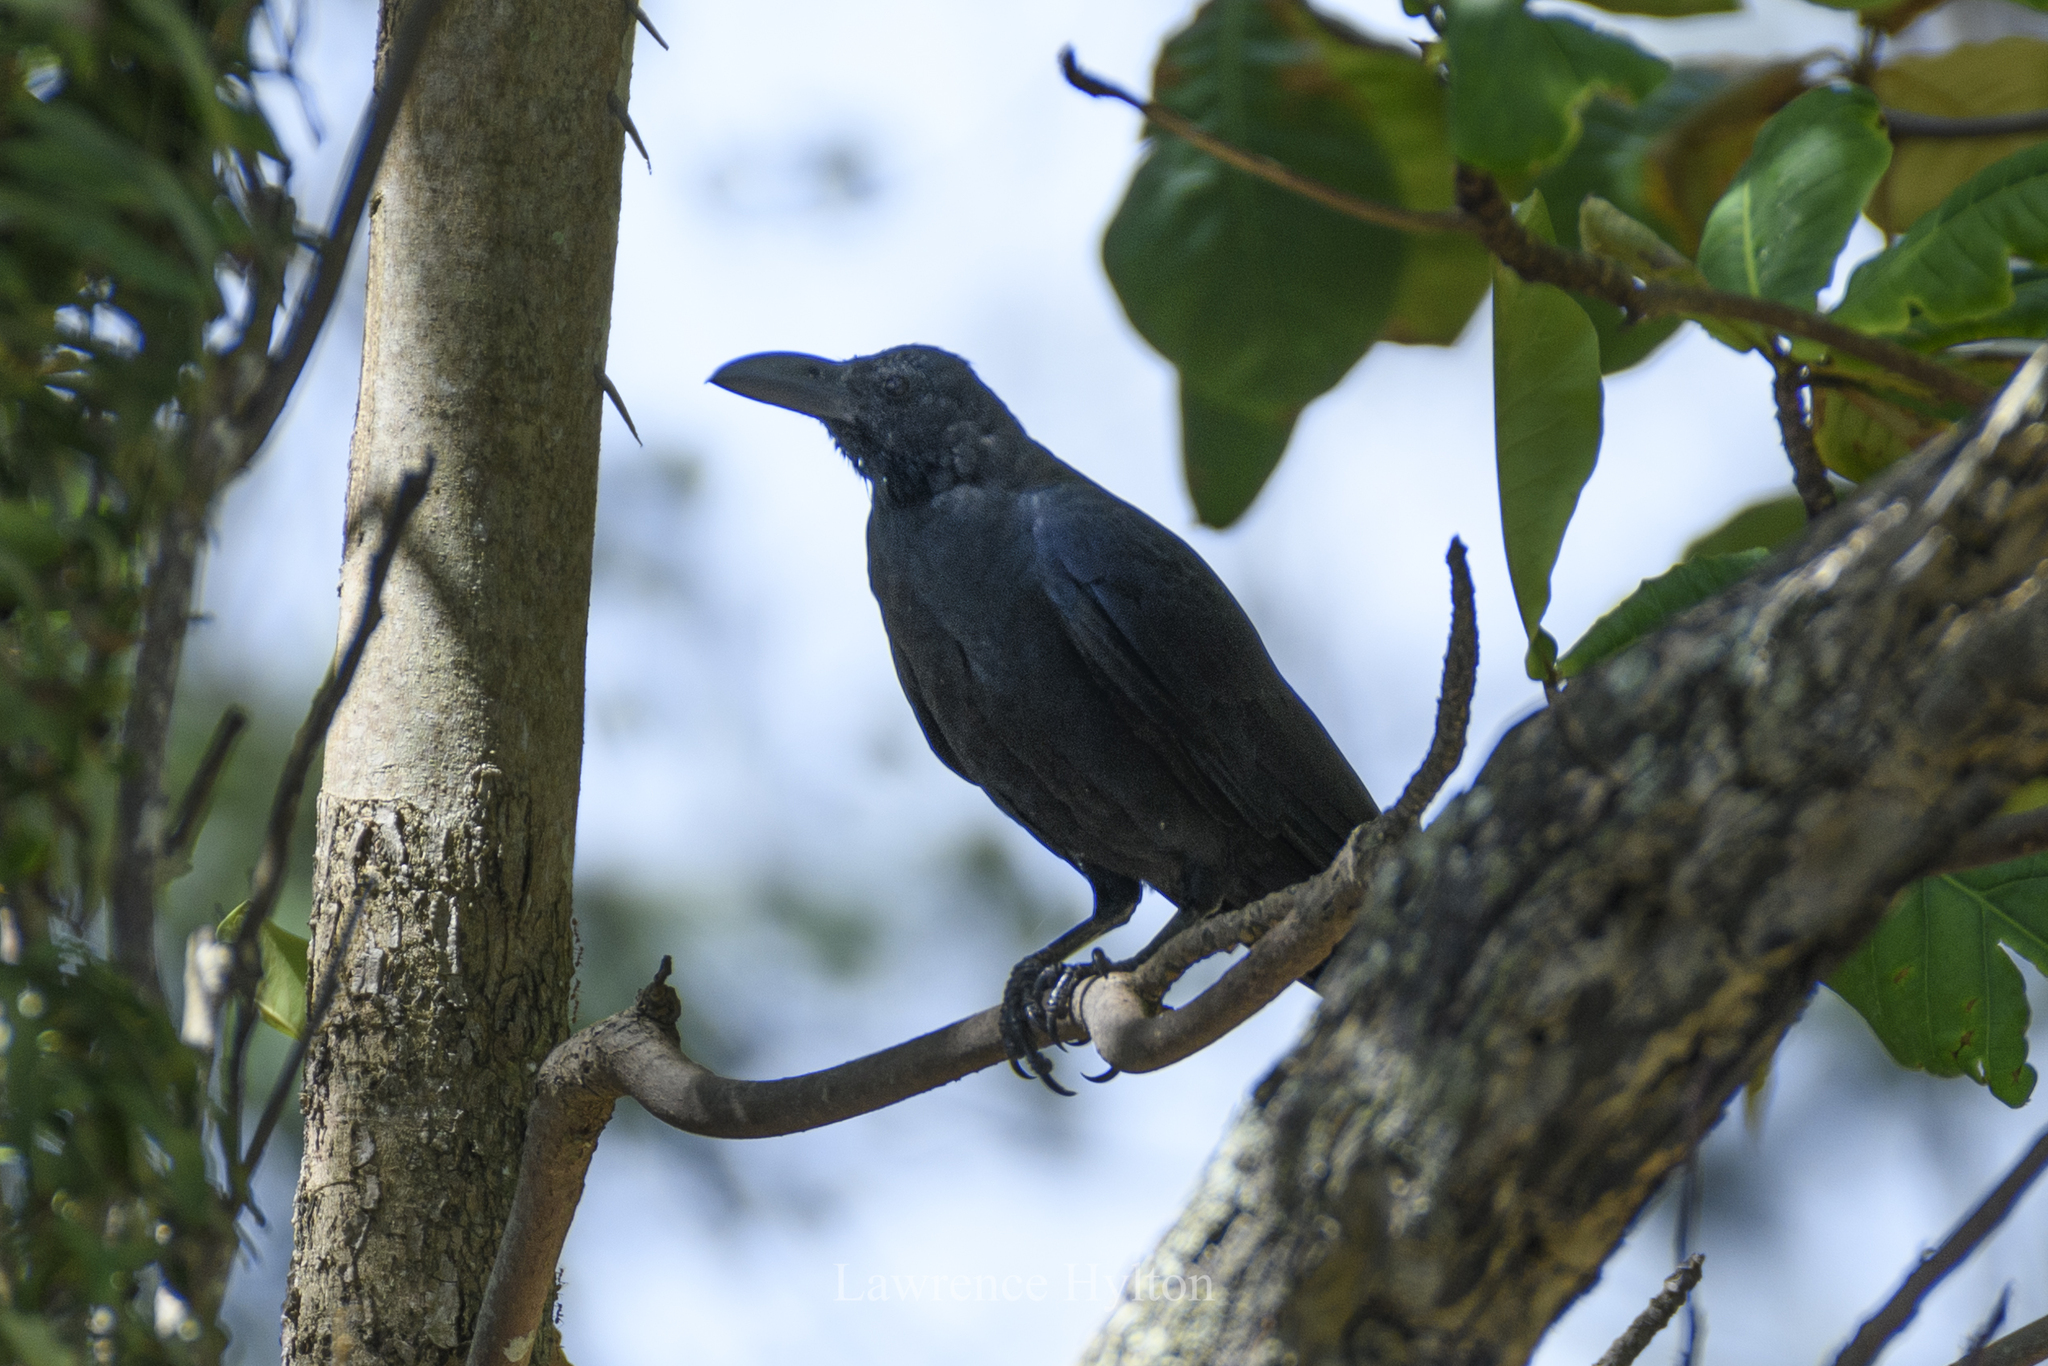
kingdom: Animalia
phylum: Chordata
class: Aves
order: Passeriformes
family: Corvidae
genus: Corvus
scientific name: Corvus macrorhynchos
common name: Large-billed crow
